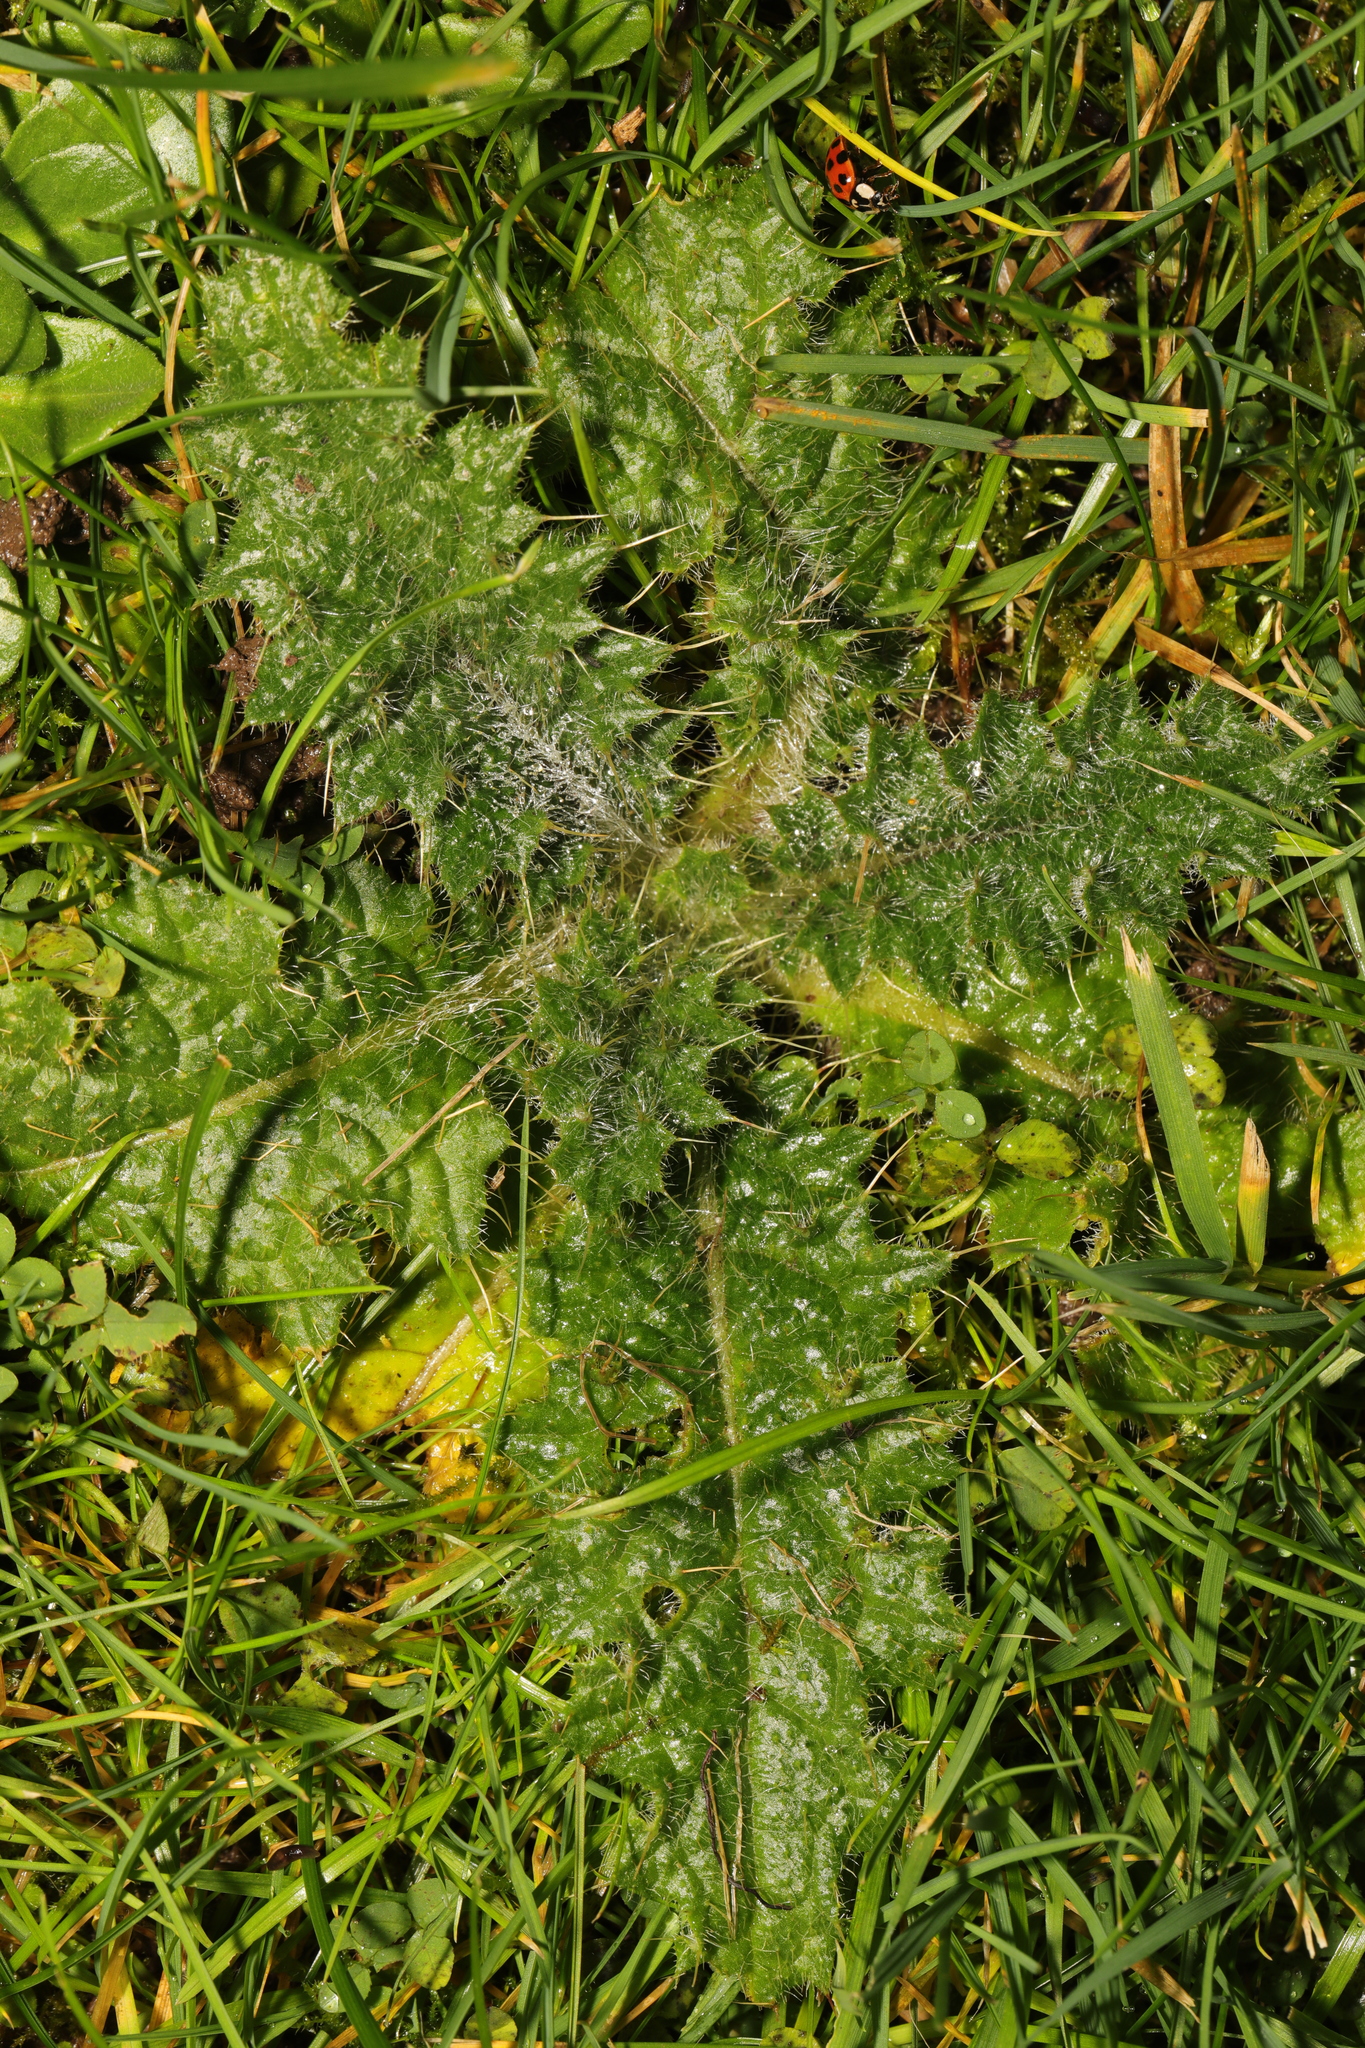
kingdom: Plantae
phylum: Tracheophyta
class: Magnoliopsida
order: Asterales
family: Asteraceae
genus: Cirsium
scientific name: Cirsium vulgare
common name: Bull thistle
